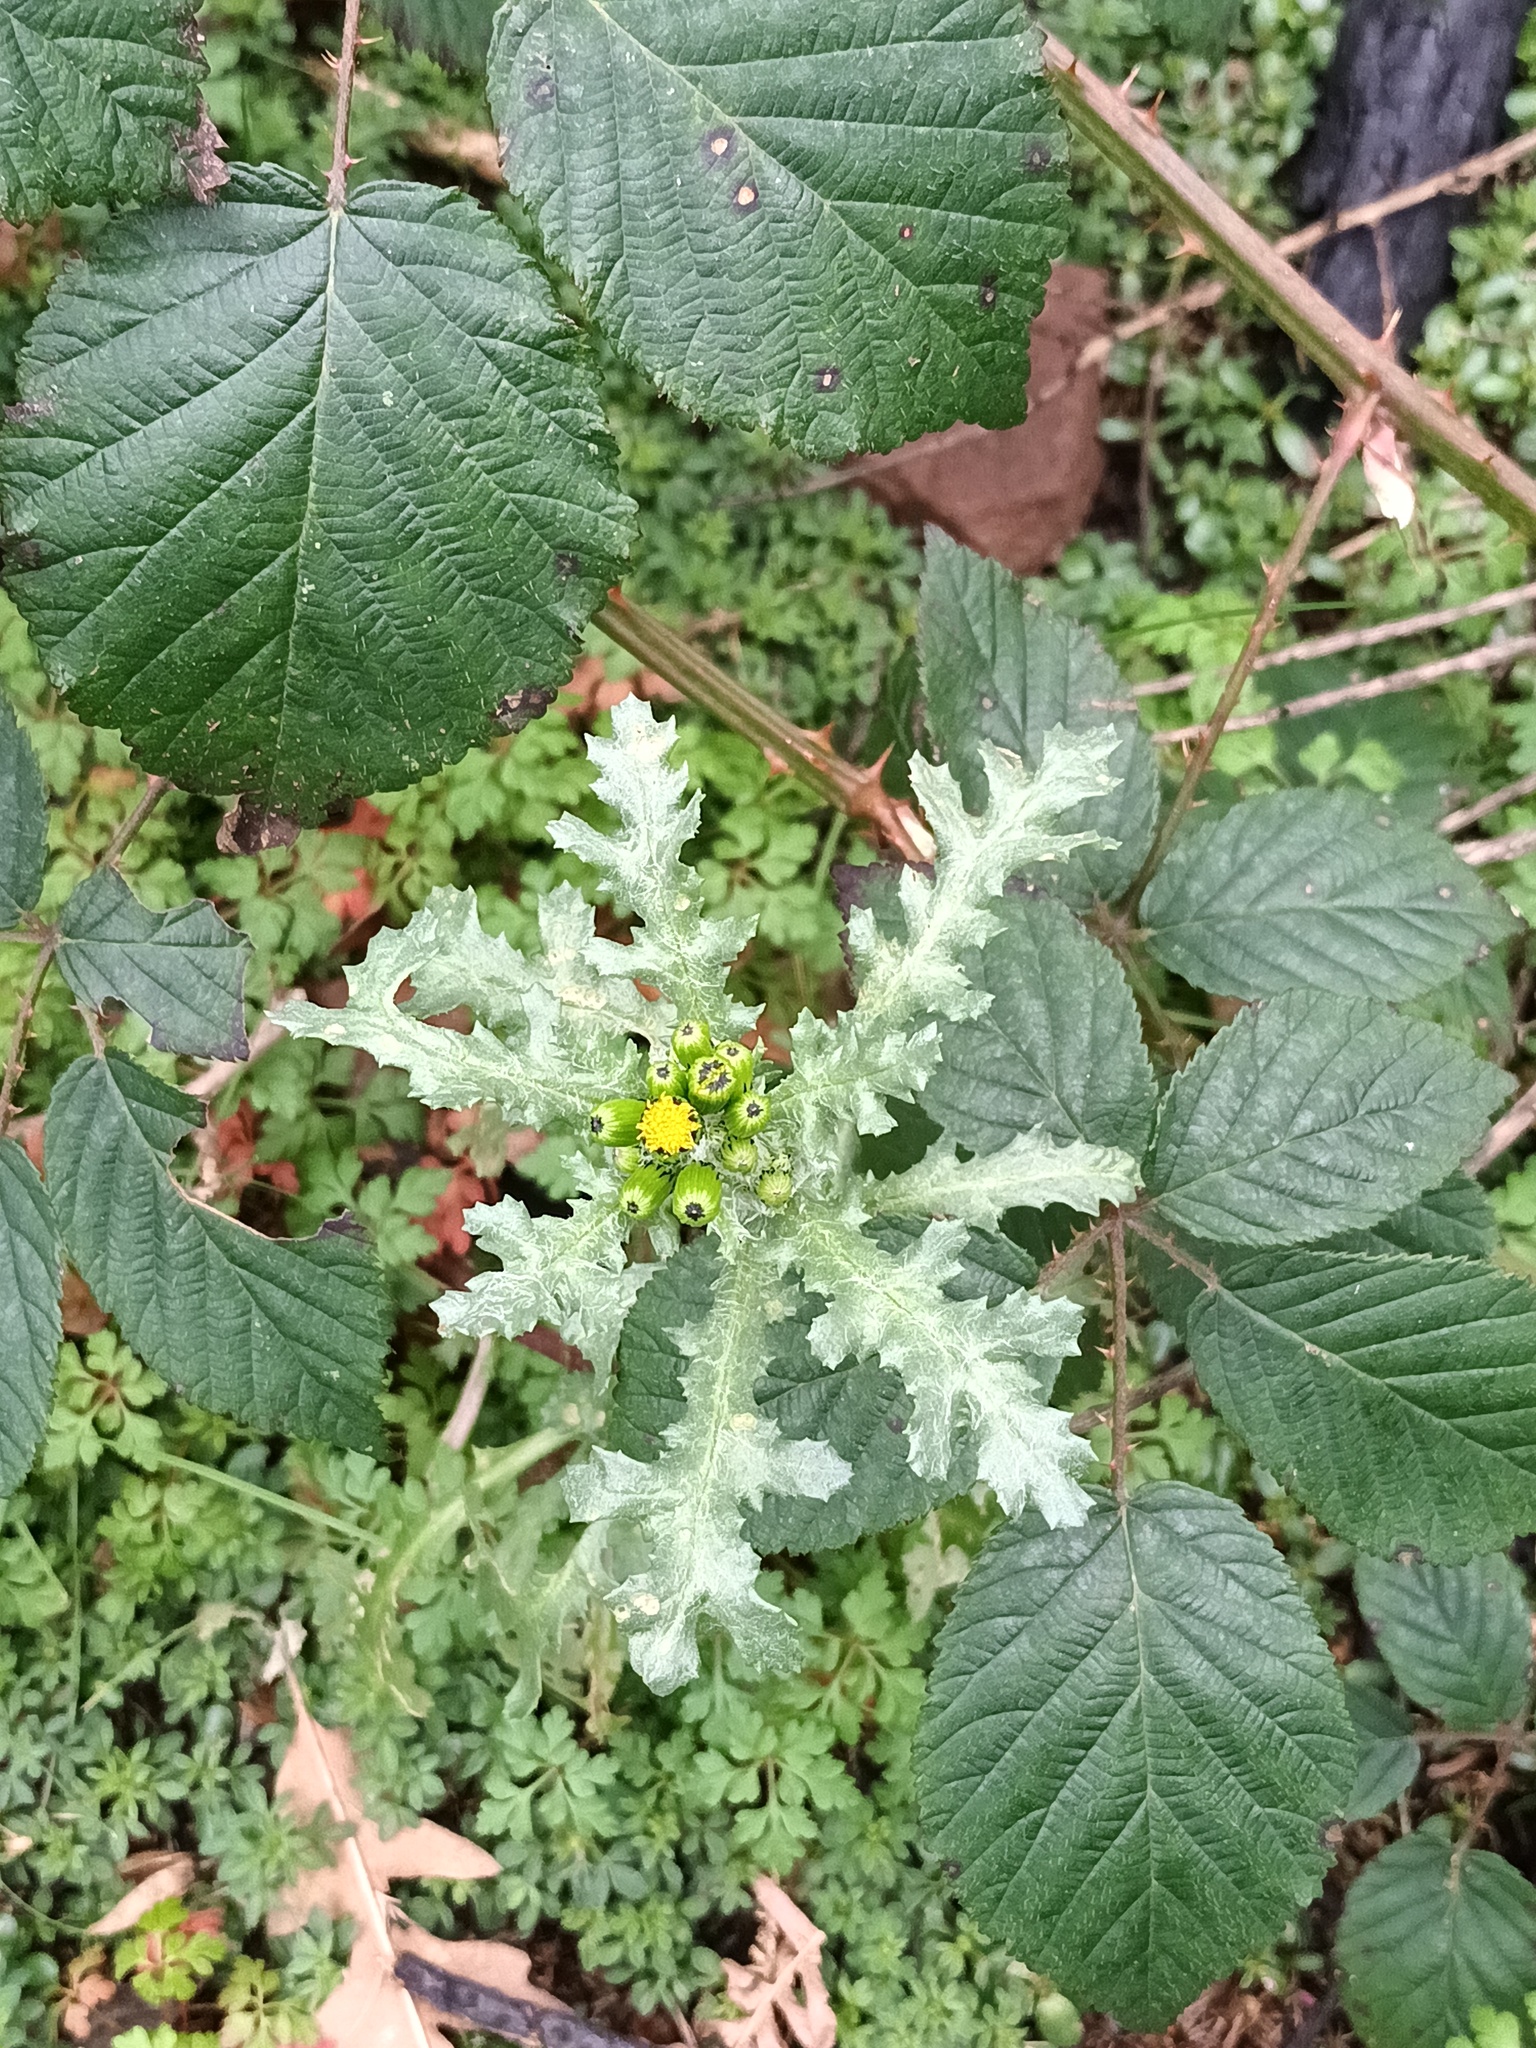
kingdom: Plantae
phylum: Tracheophyta
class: Magnoliopsida
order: Asterales
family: Asteraceae
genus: Senecio
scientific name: Senecio vulgaris
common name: Old-man-in-the-spring
